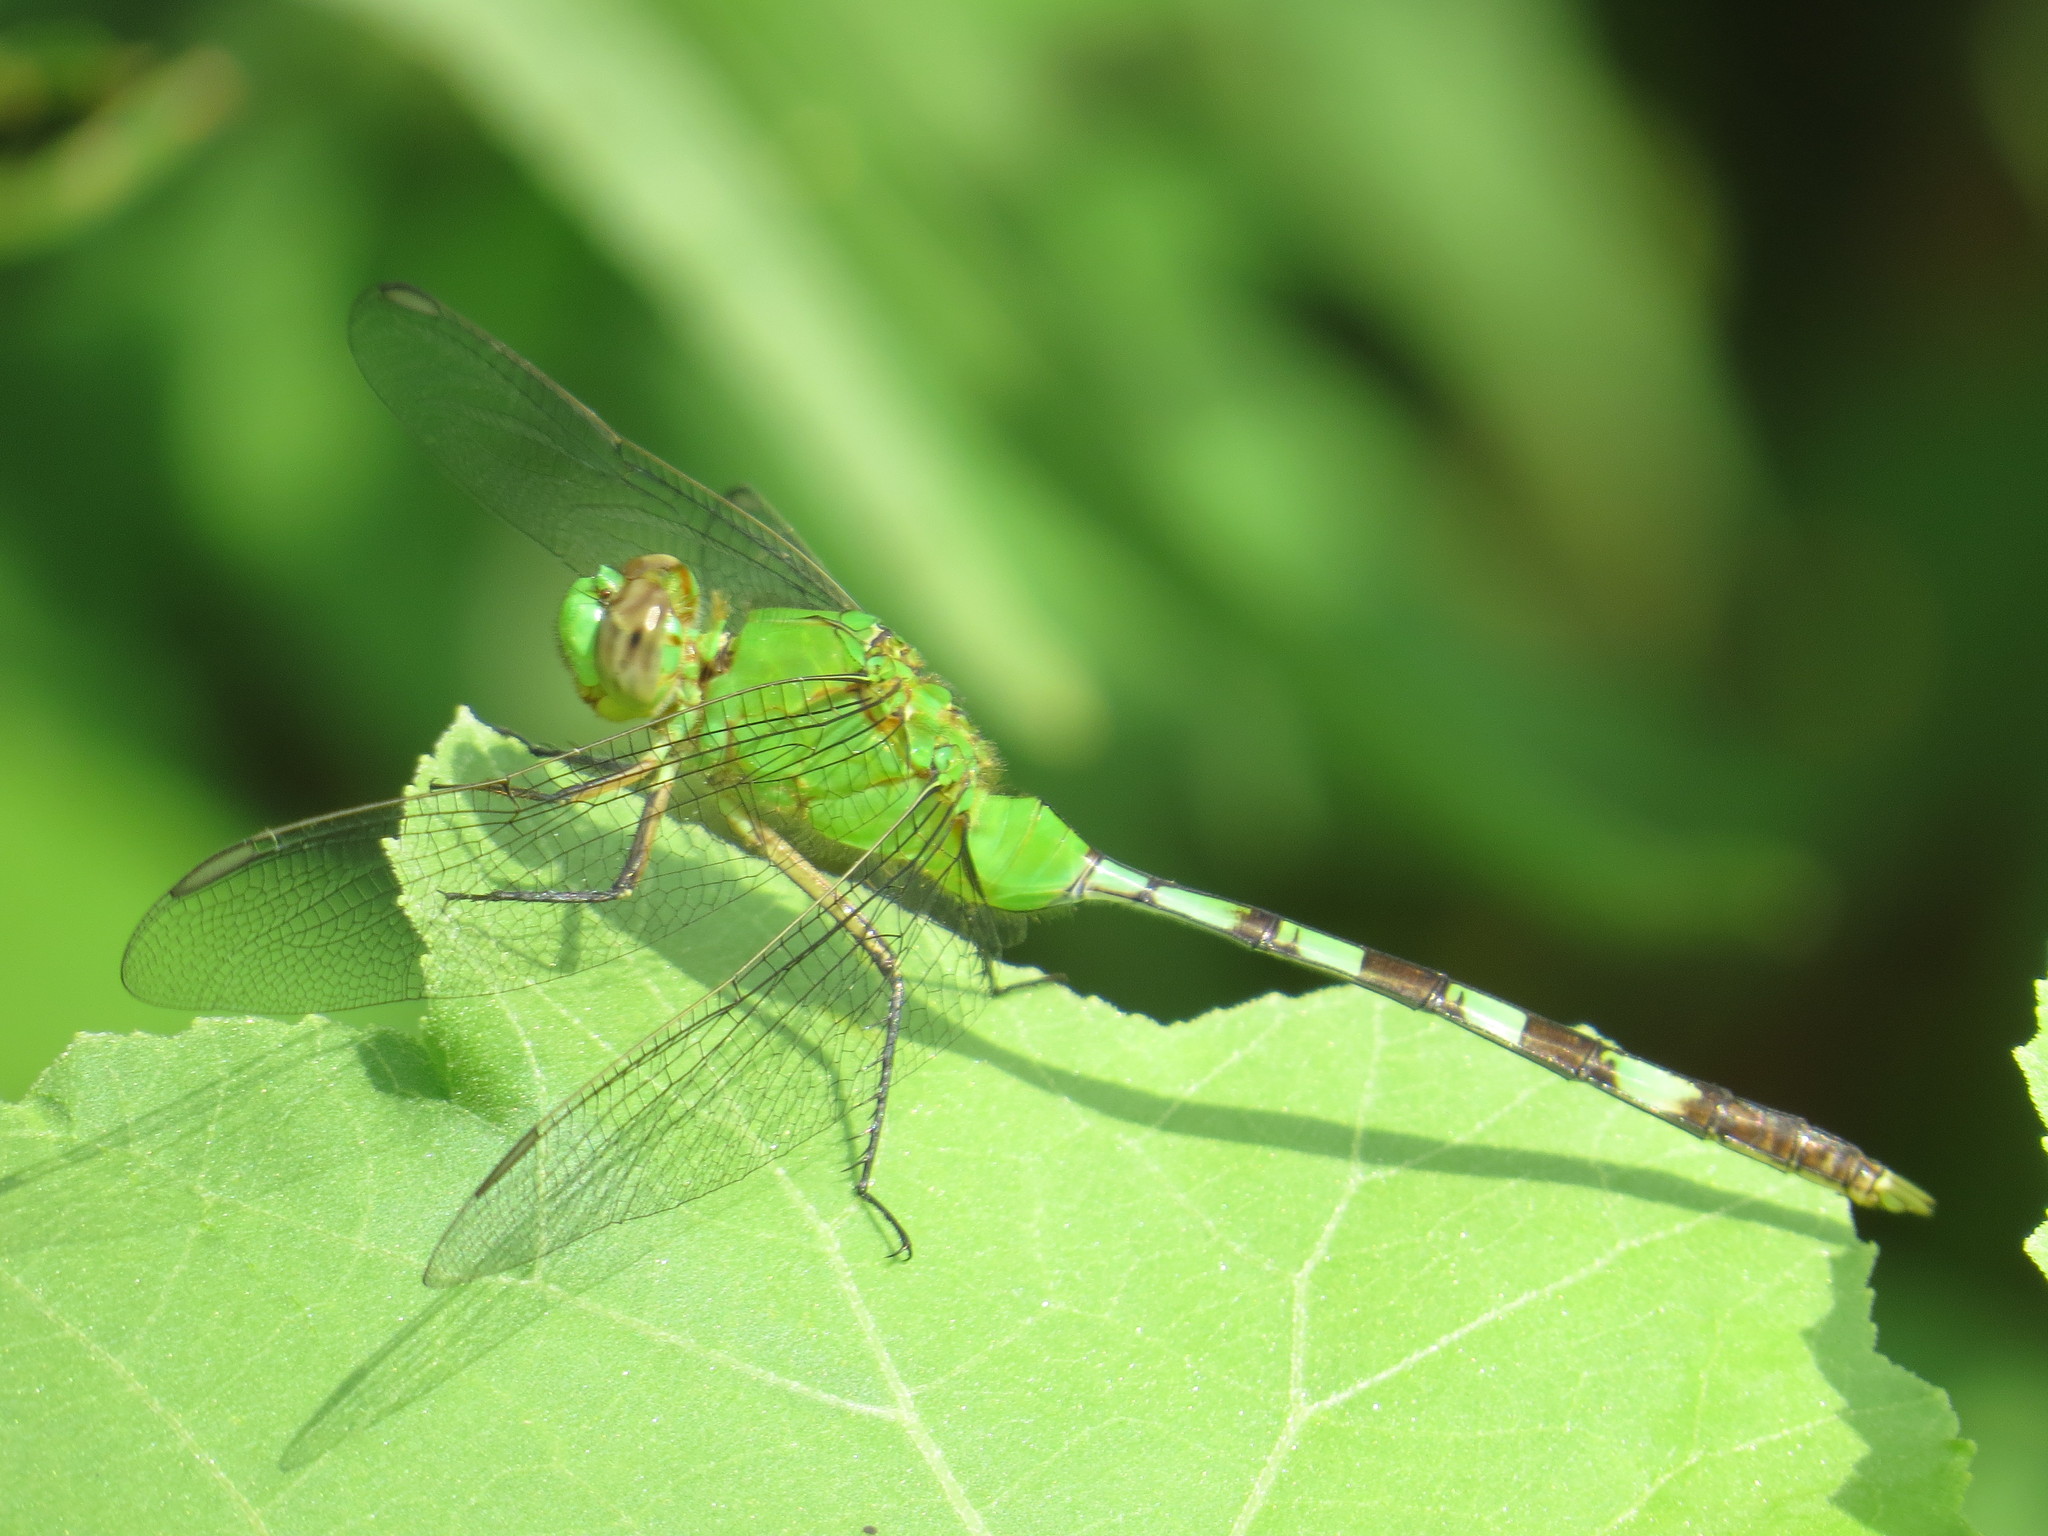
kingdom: Animalia
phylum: Arthropoda
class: Insecta
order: Odonata
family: Libellulidae
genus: Erythemis
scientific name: Erythemis vesiculosa
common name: Great pondhawk
